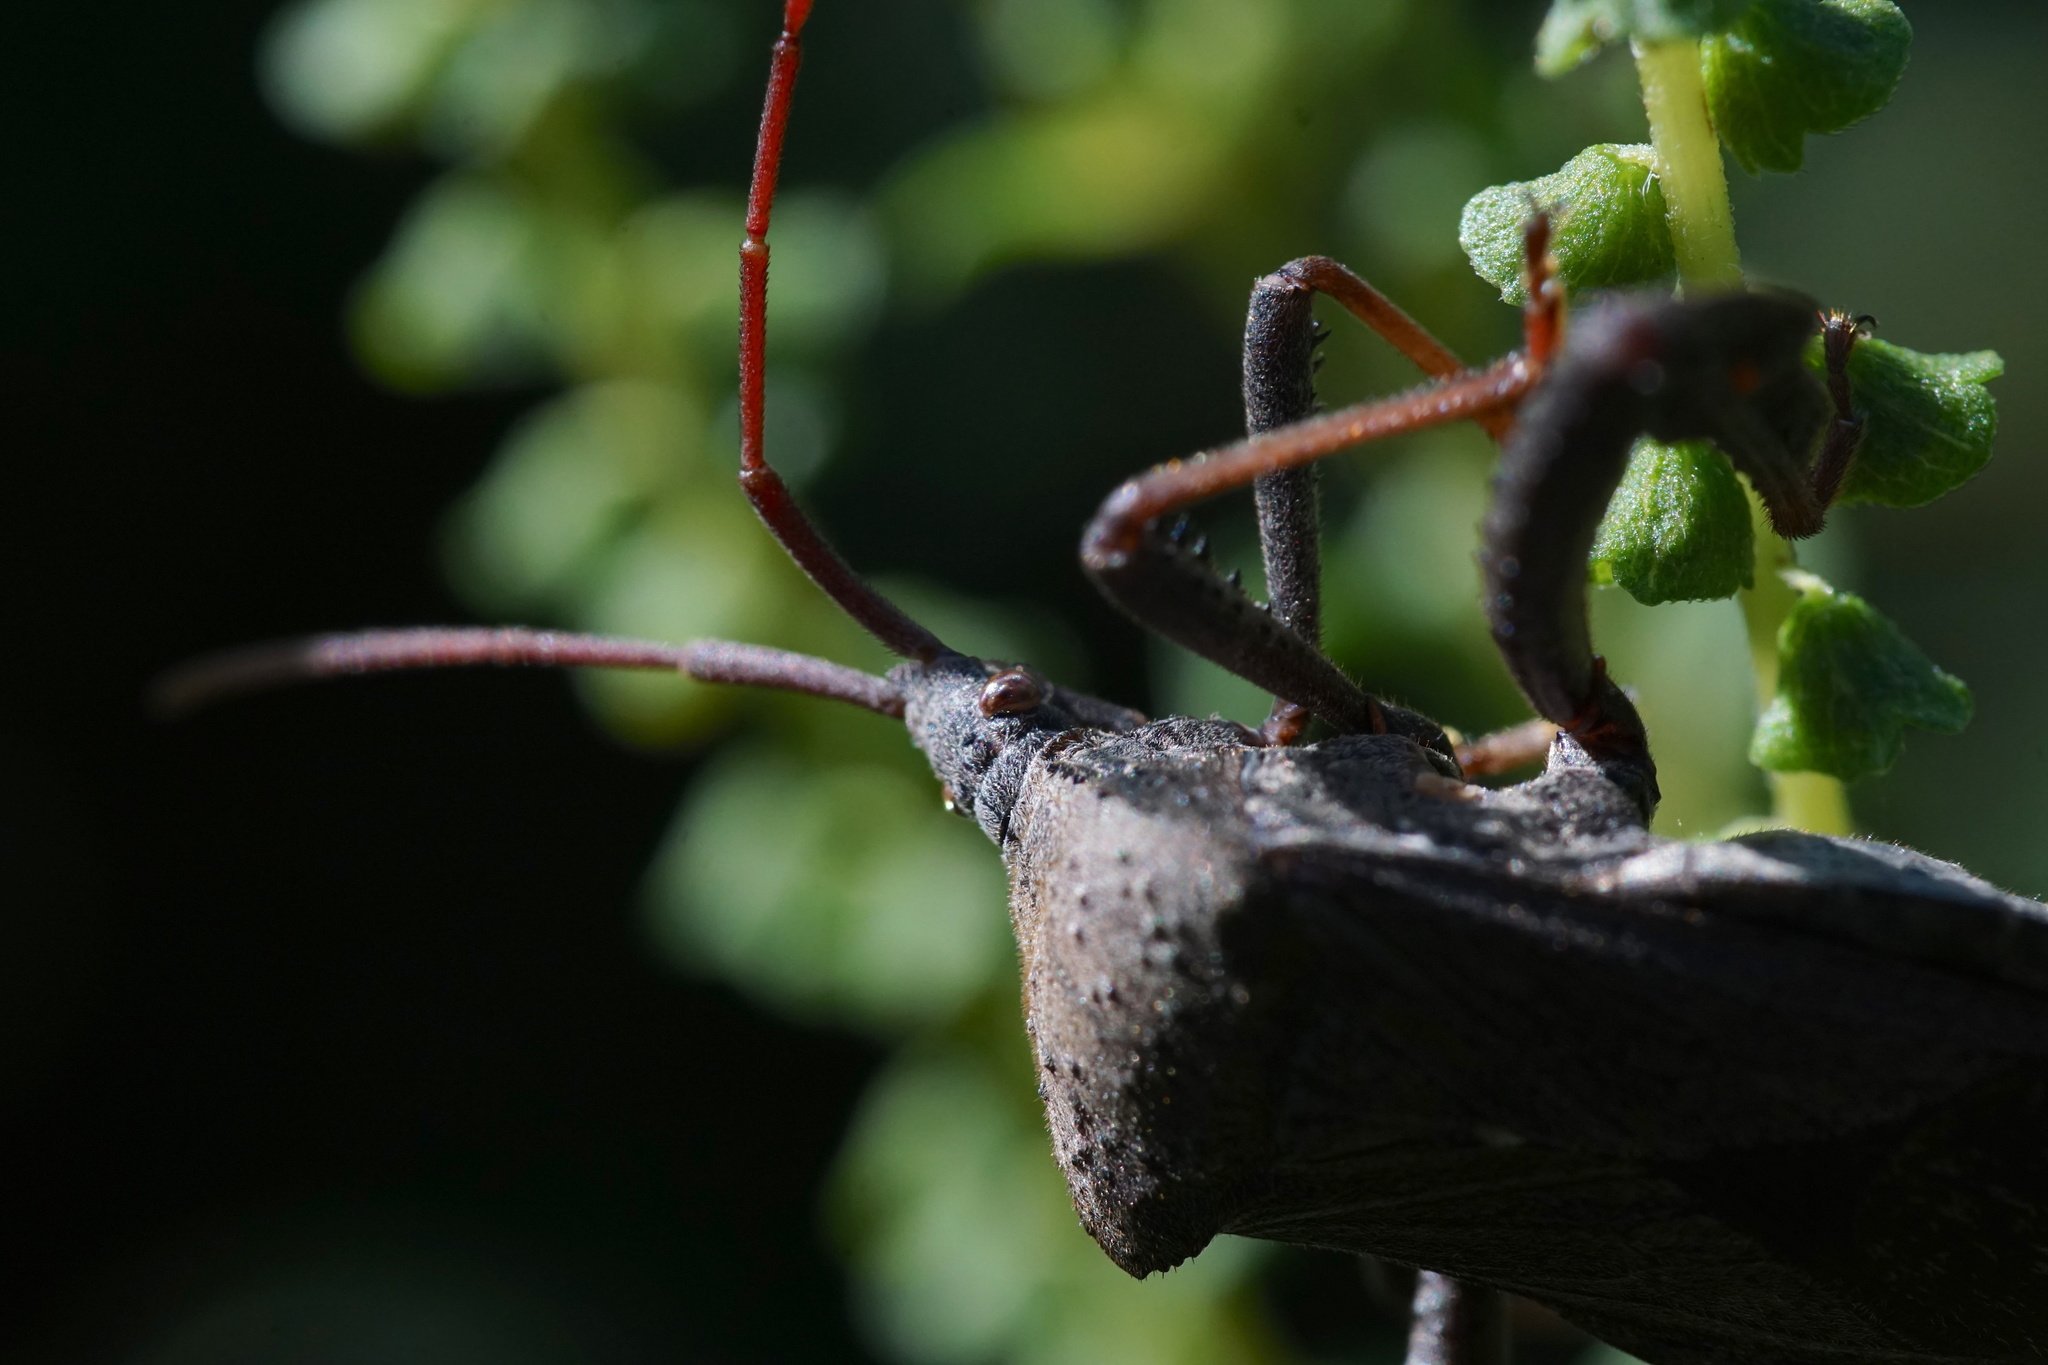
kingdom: Animalia
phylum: Arthropoda
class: Insecta
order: Hemiptera
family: Coreidae
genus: Acanthocephala
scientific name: Acanthocephala femorata
